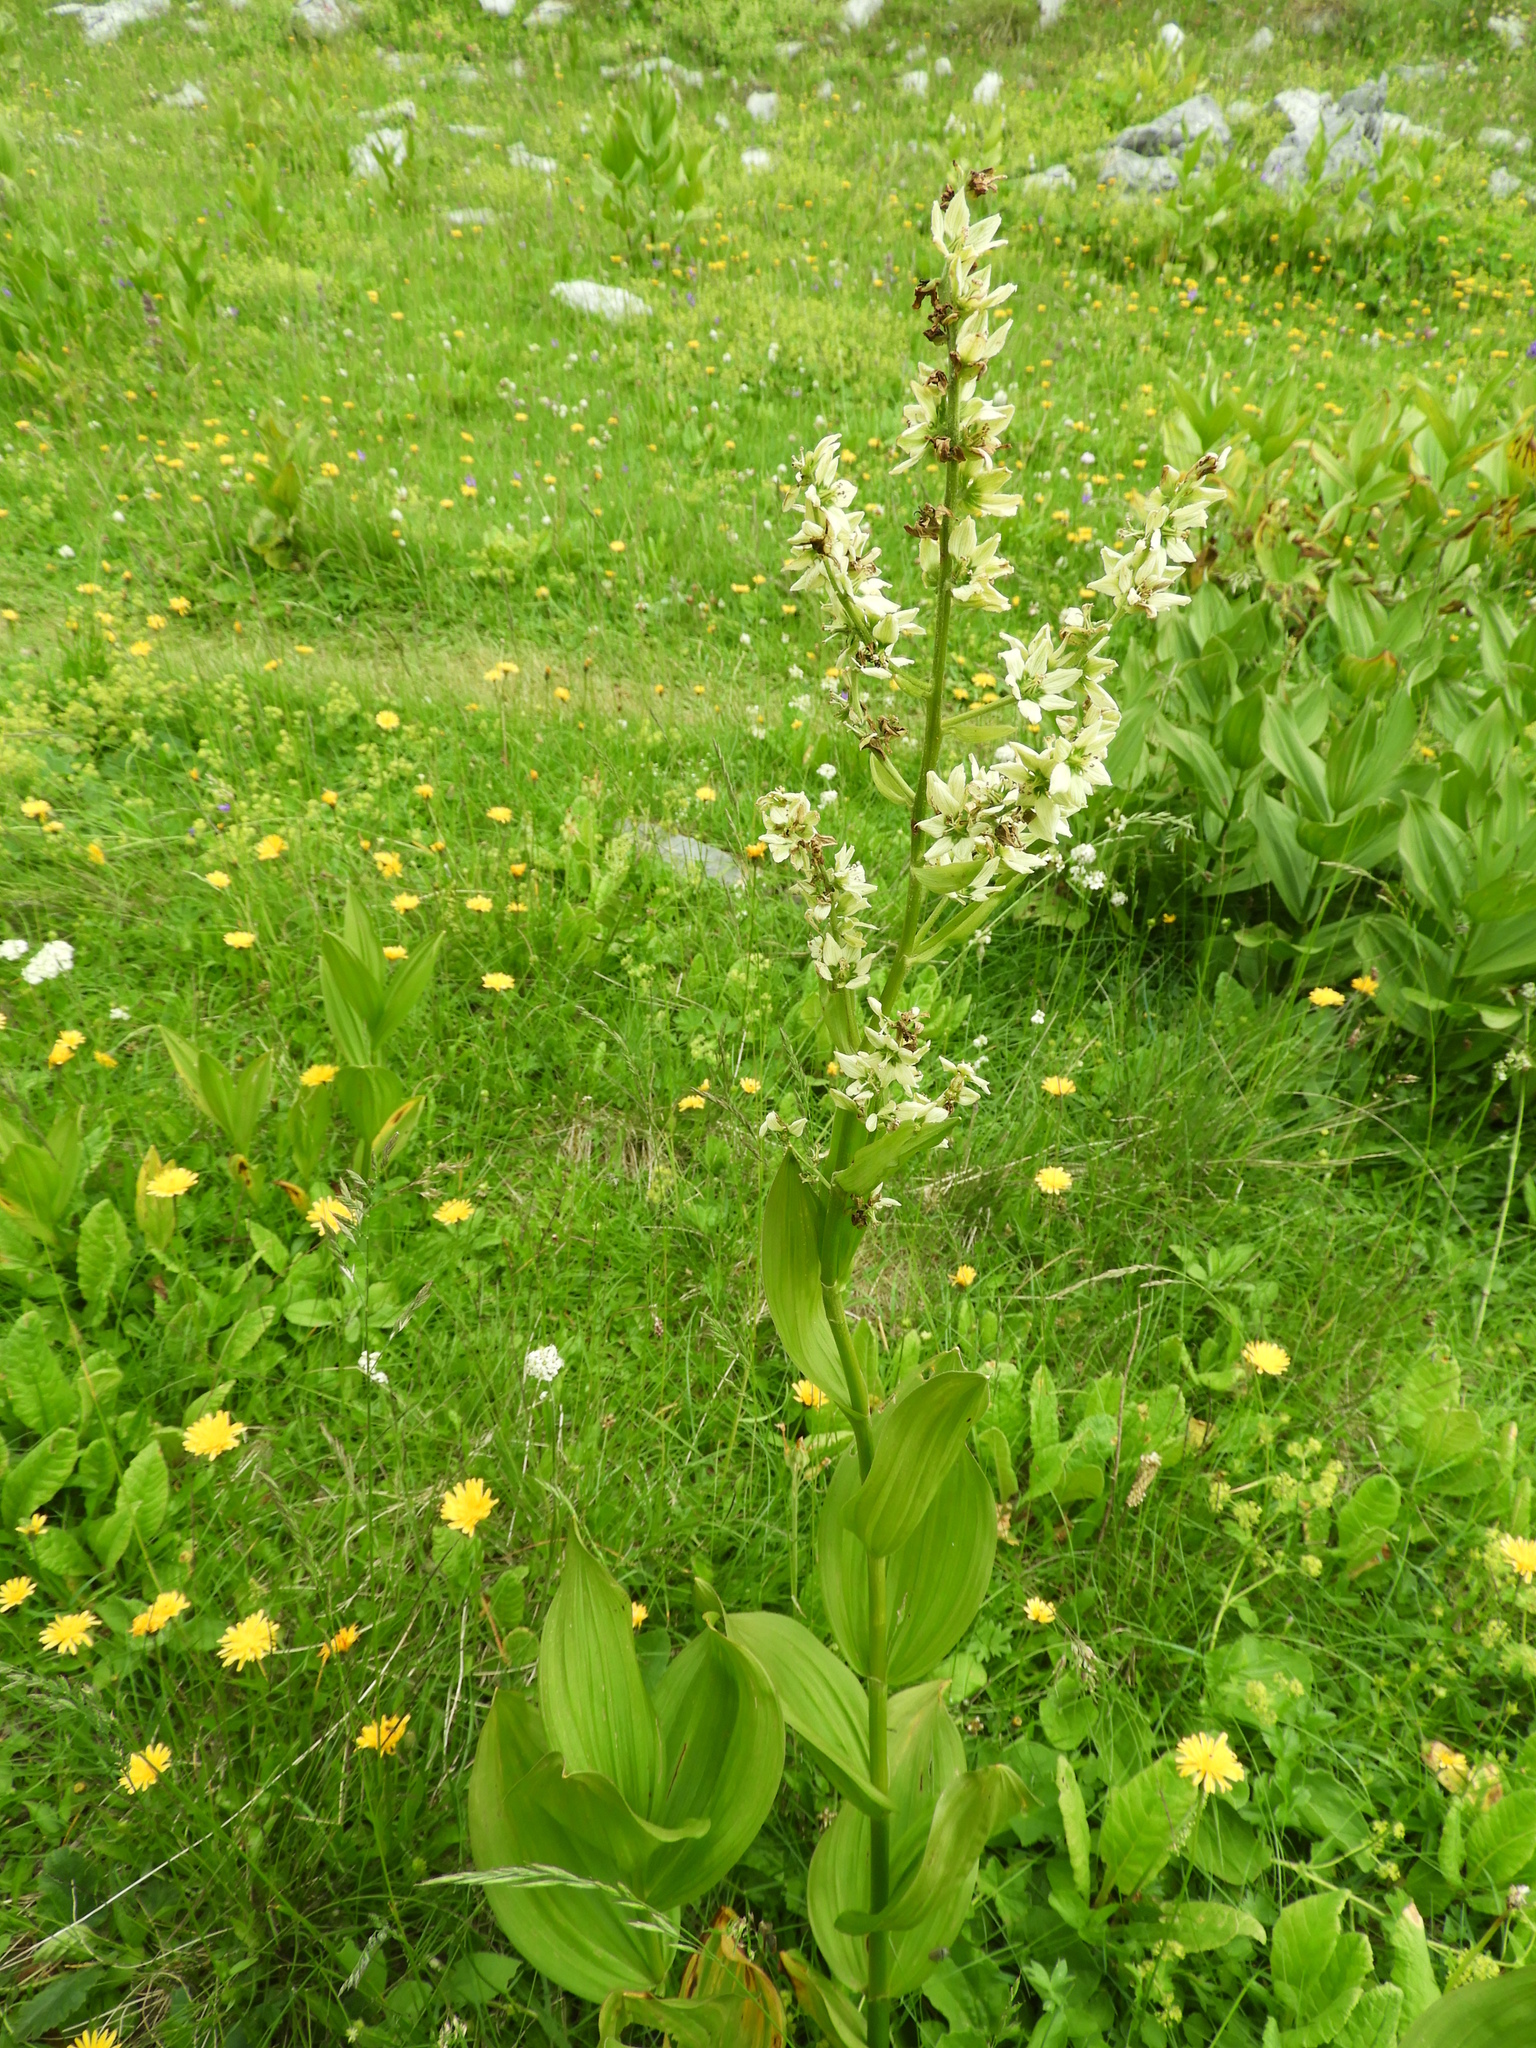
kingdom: Plantae
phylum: Tracheophyta
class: Liliopsida
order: Liliales
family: Melanthiaceae
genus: Veratrum
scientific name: Veratrum album
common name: White veratrum
